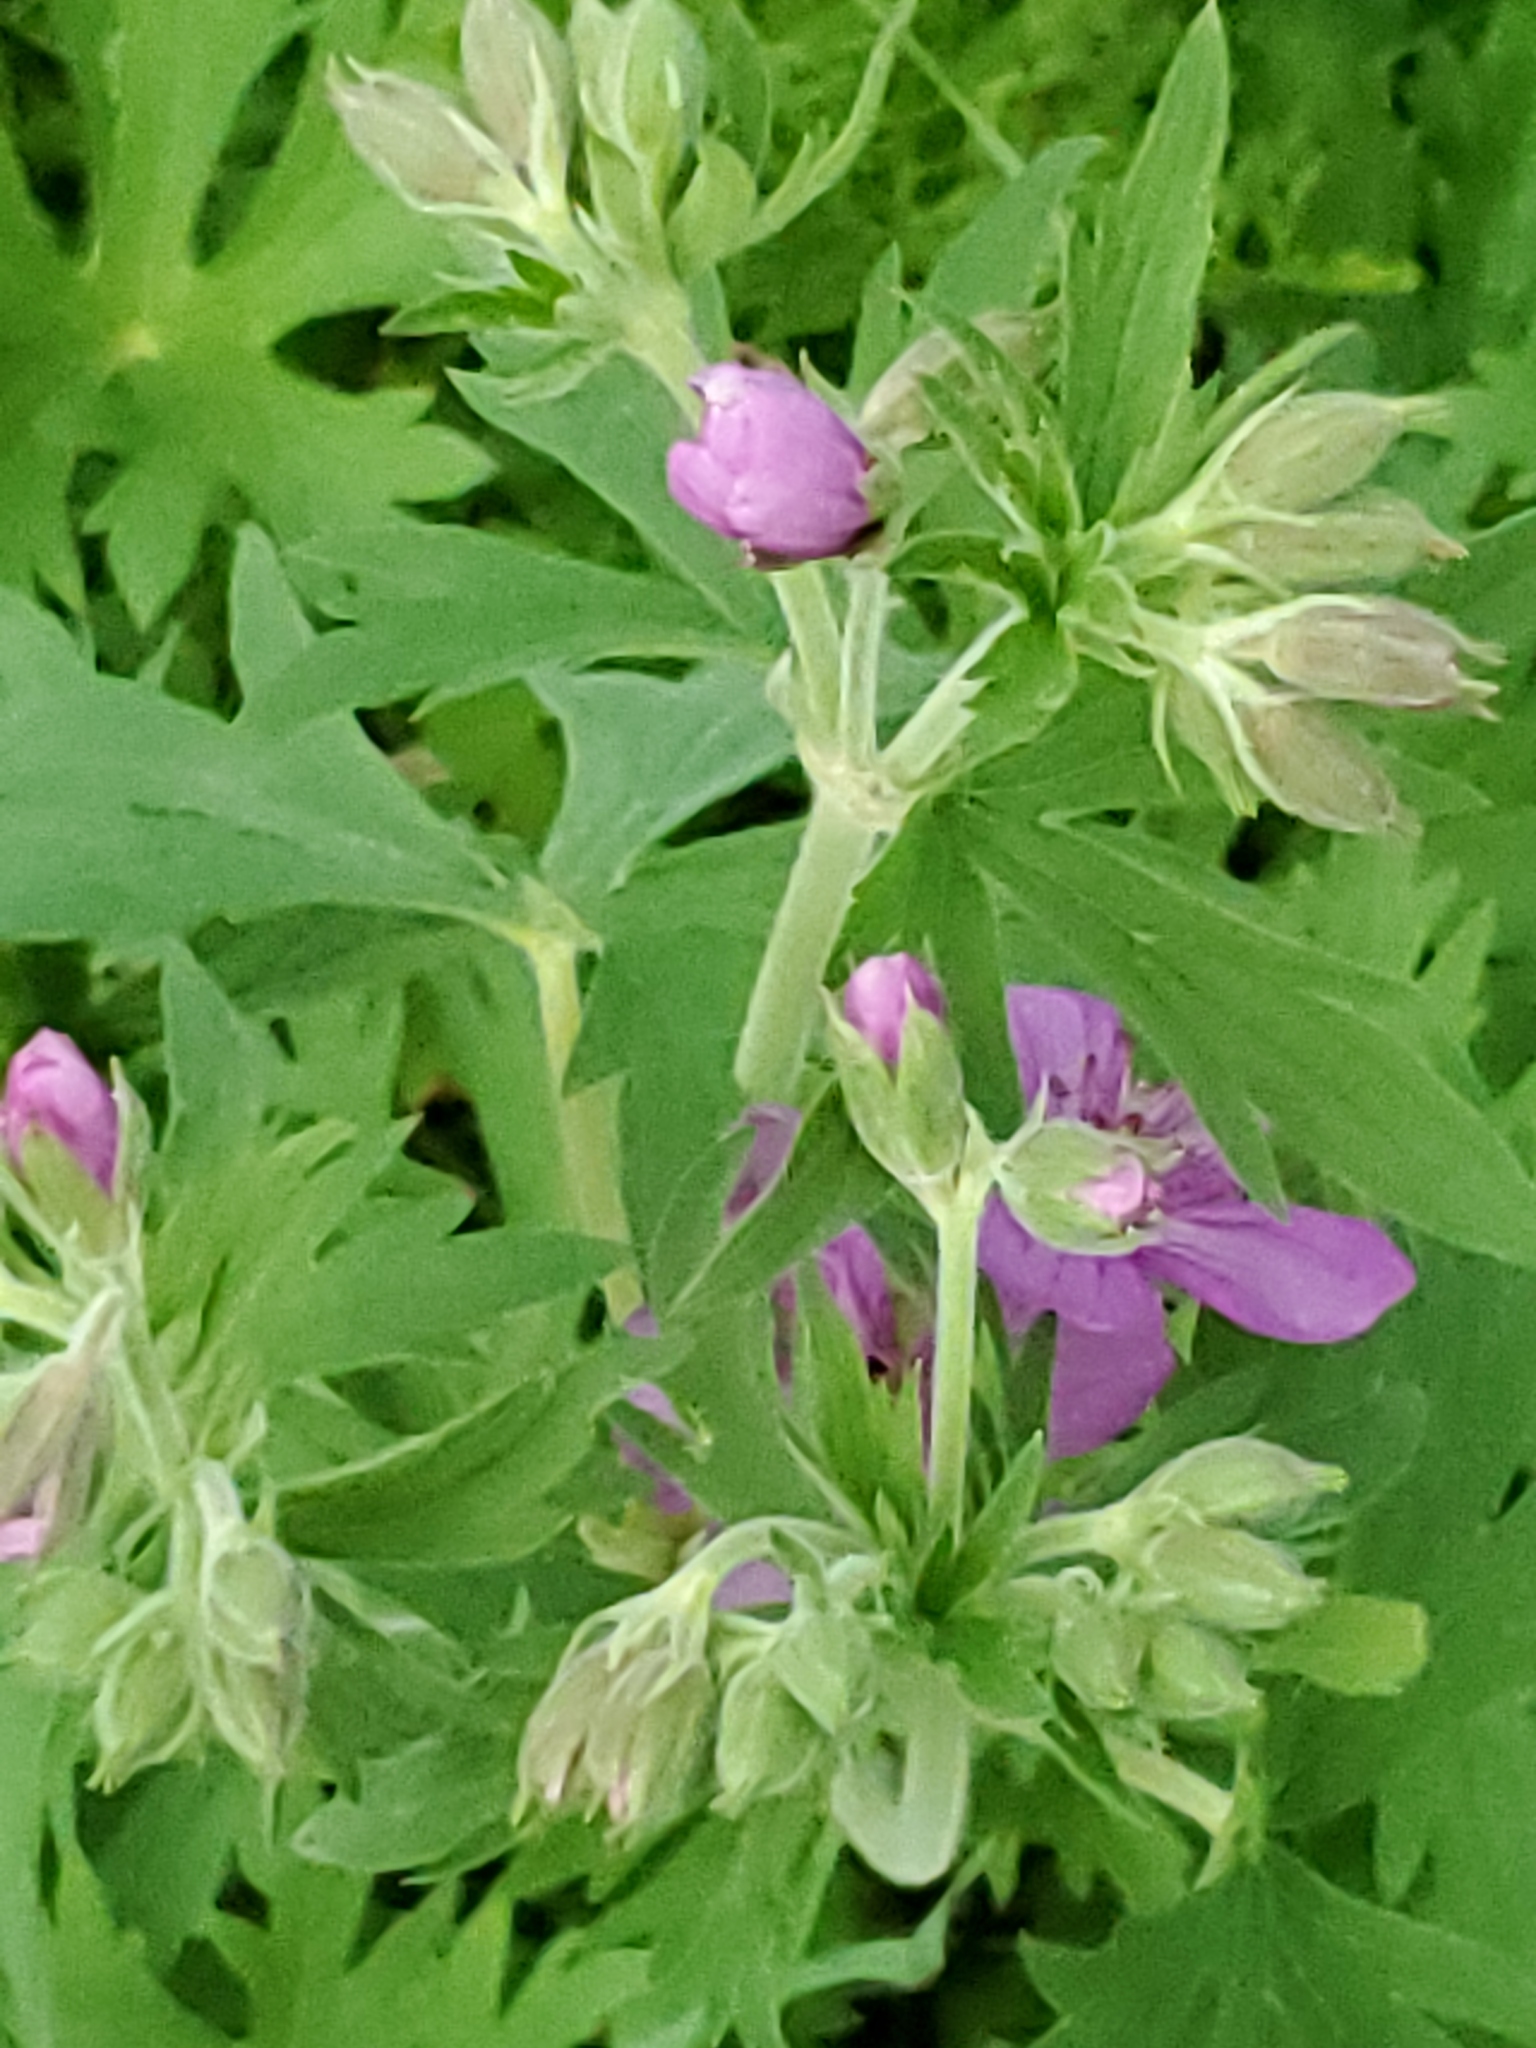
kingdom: Plantae
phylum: Tracheophyta
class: Magnoliopsida
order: Geraniales
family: Geraniaceae
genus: Geranium
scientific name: Geranium viscosissimum
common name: Purple geranium
